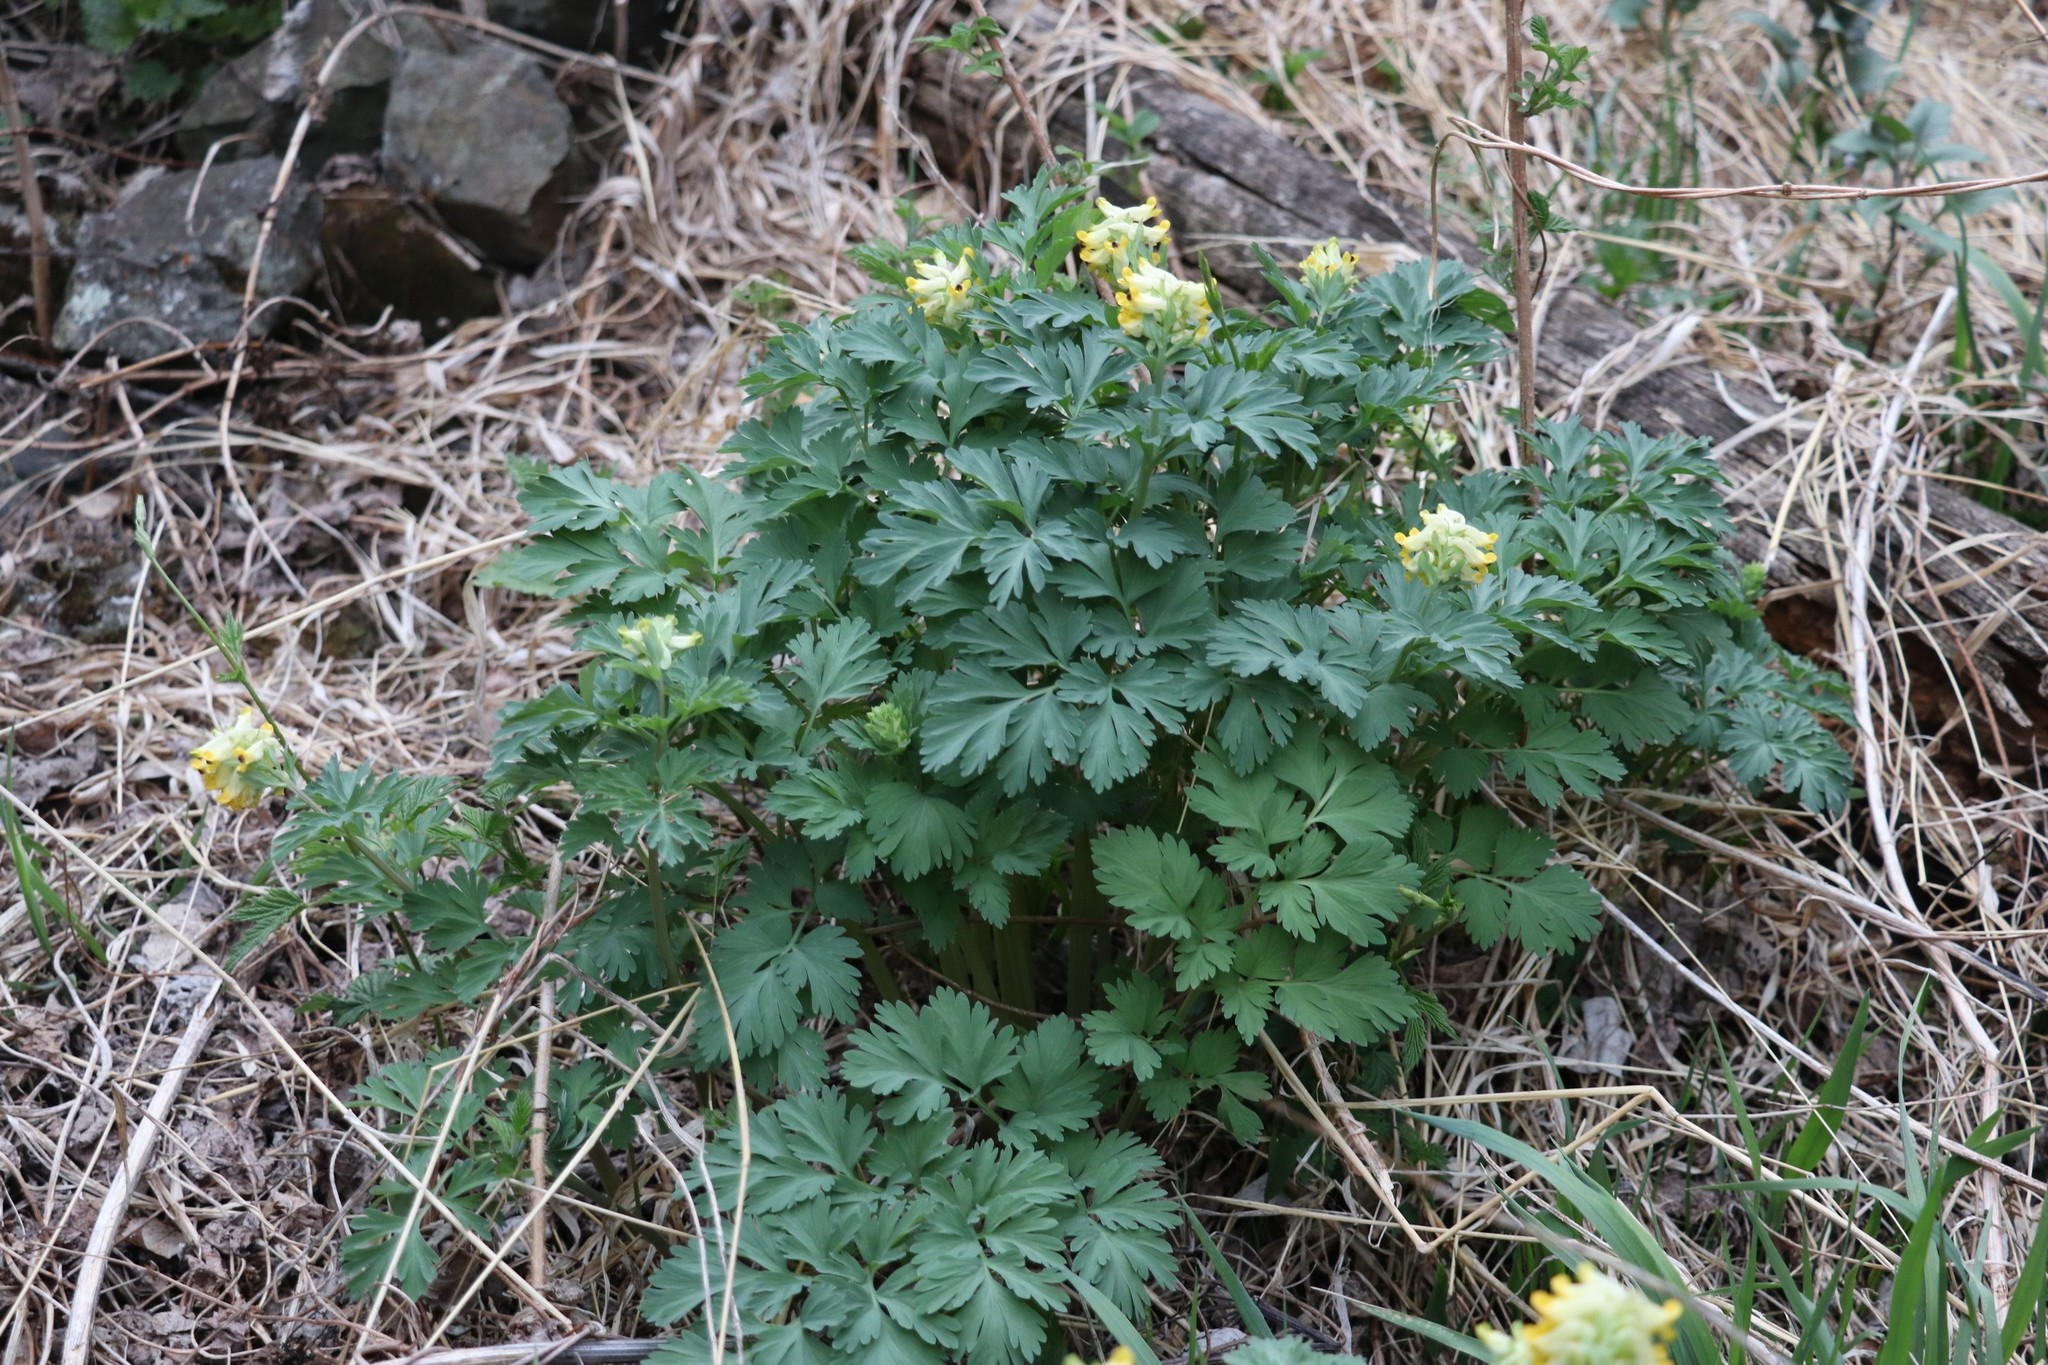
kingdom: Plantae
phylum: Tracheophyta
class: Magnoliopsida
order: Ranunculales
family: Papaveraceae
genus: Corydalis
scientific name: Corydalis nobilis
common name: Siberian corydalis
